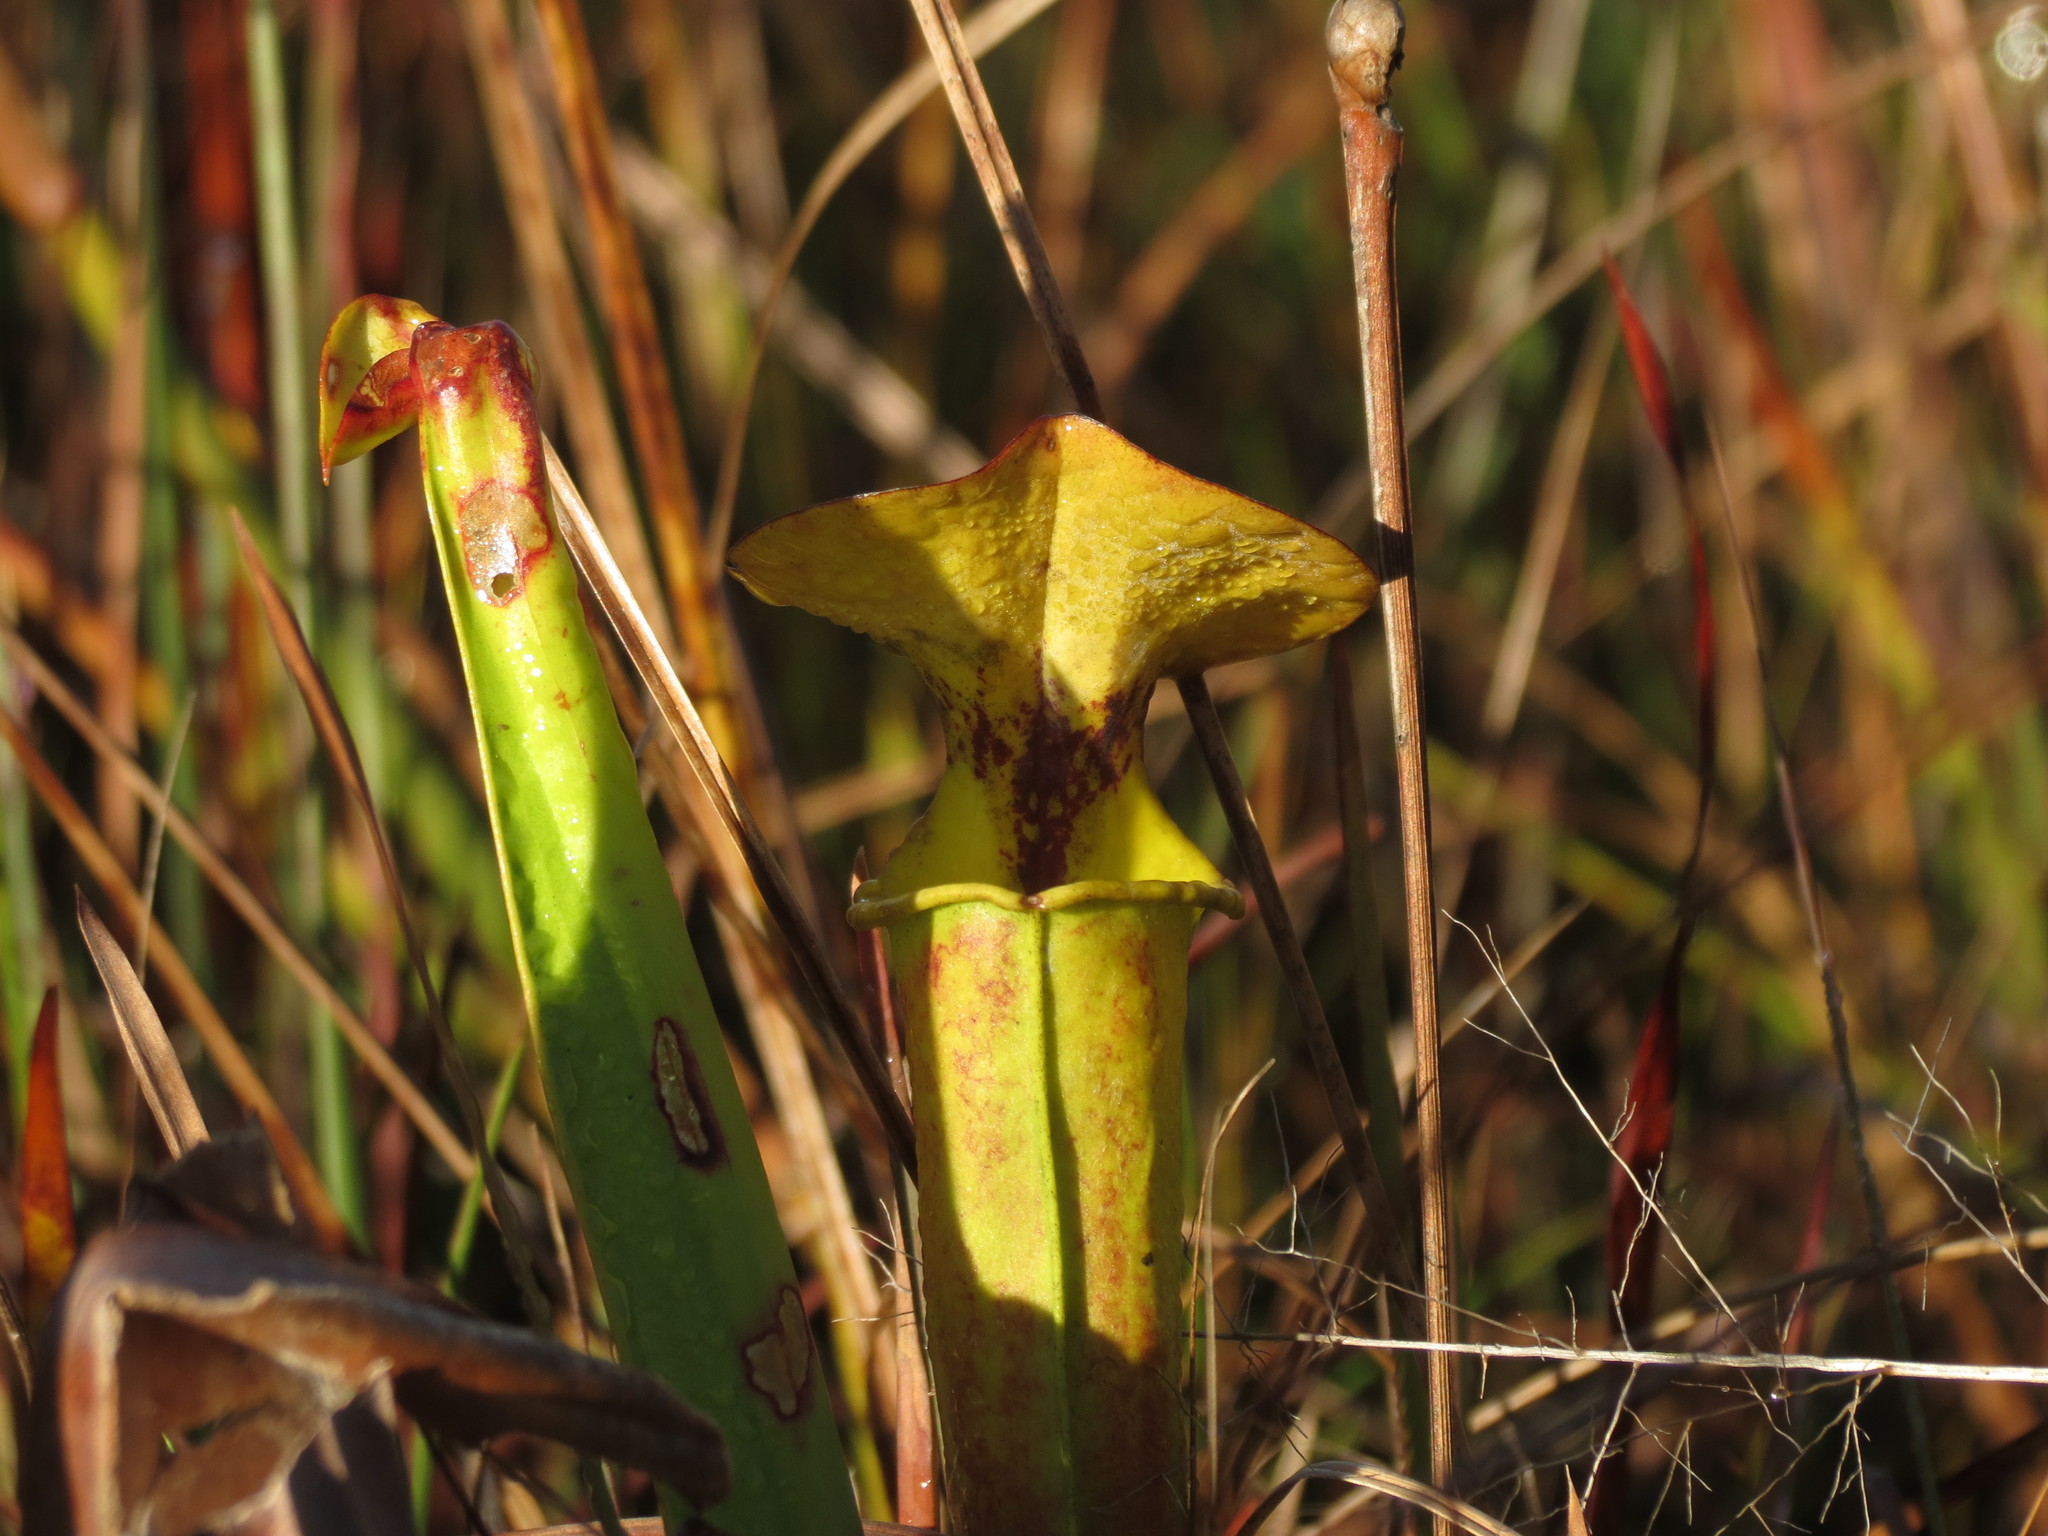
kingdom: Plantae
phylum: Tracheophyta
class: Magnoliopsida
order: Ericales
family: Sarraceniaceae
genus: Sarracenia
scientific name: Sarracenia flava
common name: Trumpets
